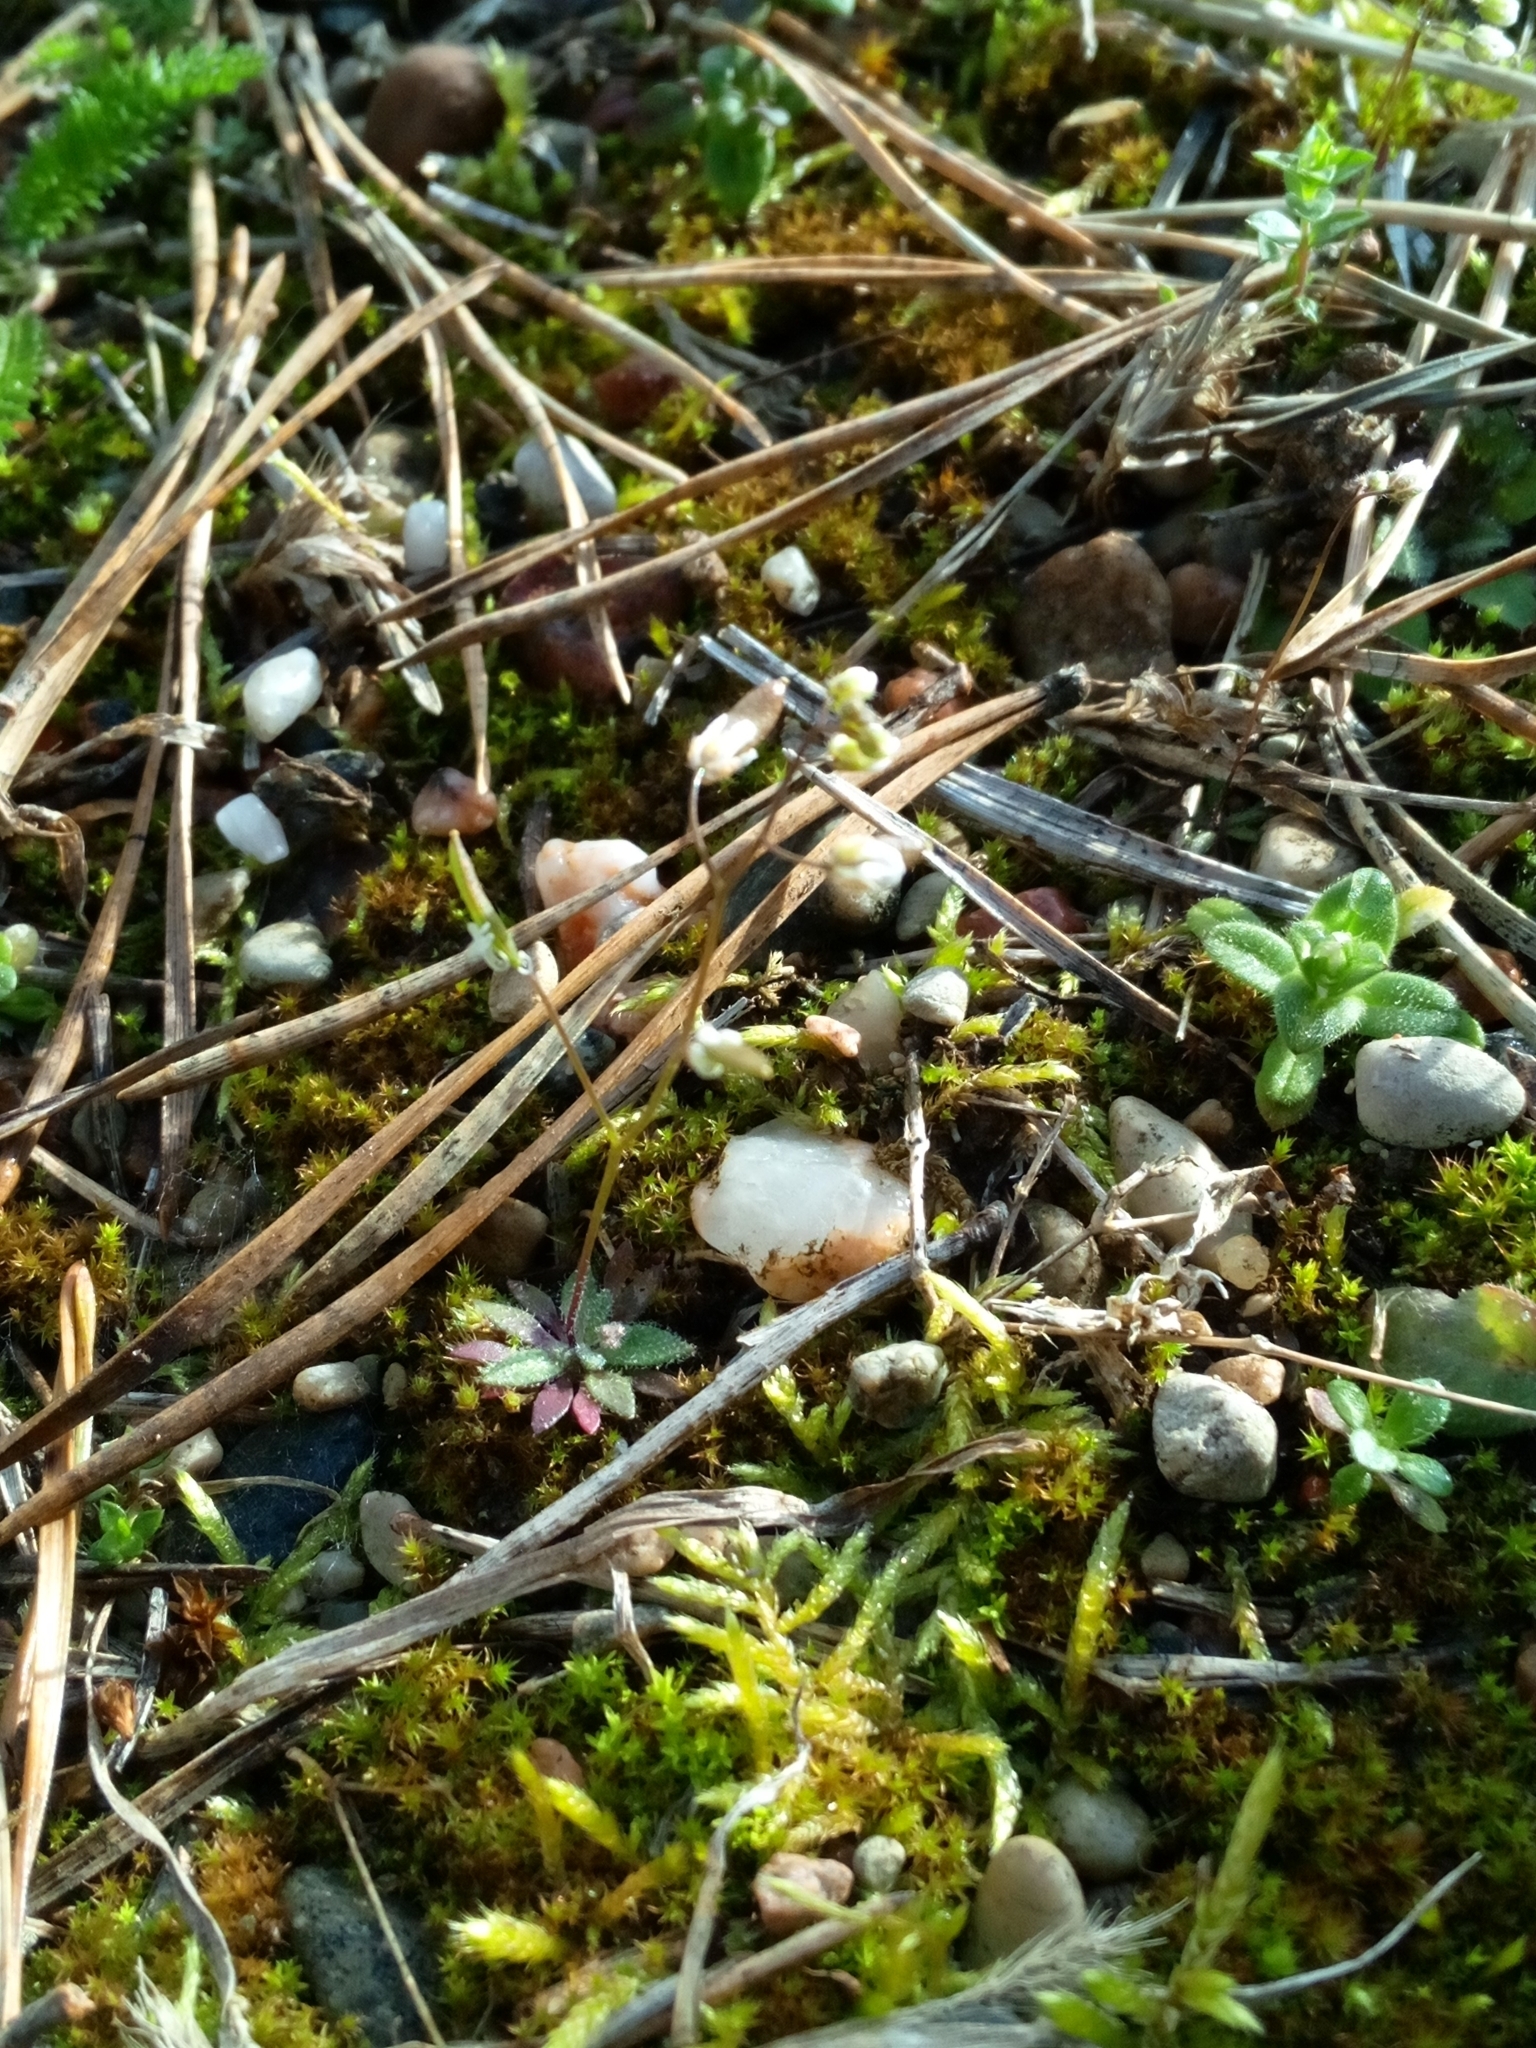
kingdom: Plantae
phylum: Tracheophyta
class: Magnoliopsida
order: Brassicales
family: Brassicaceae
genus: Draba
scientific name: Draba verna
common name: Spring draba
